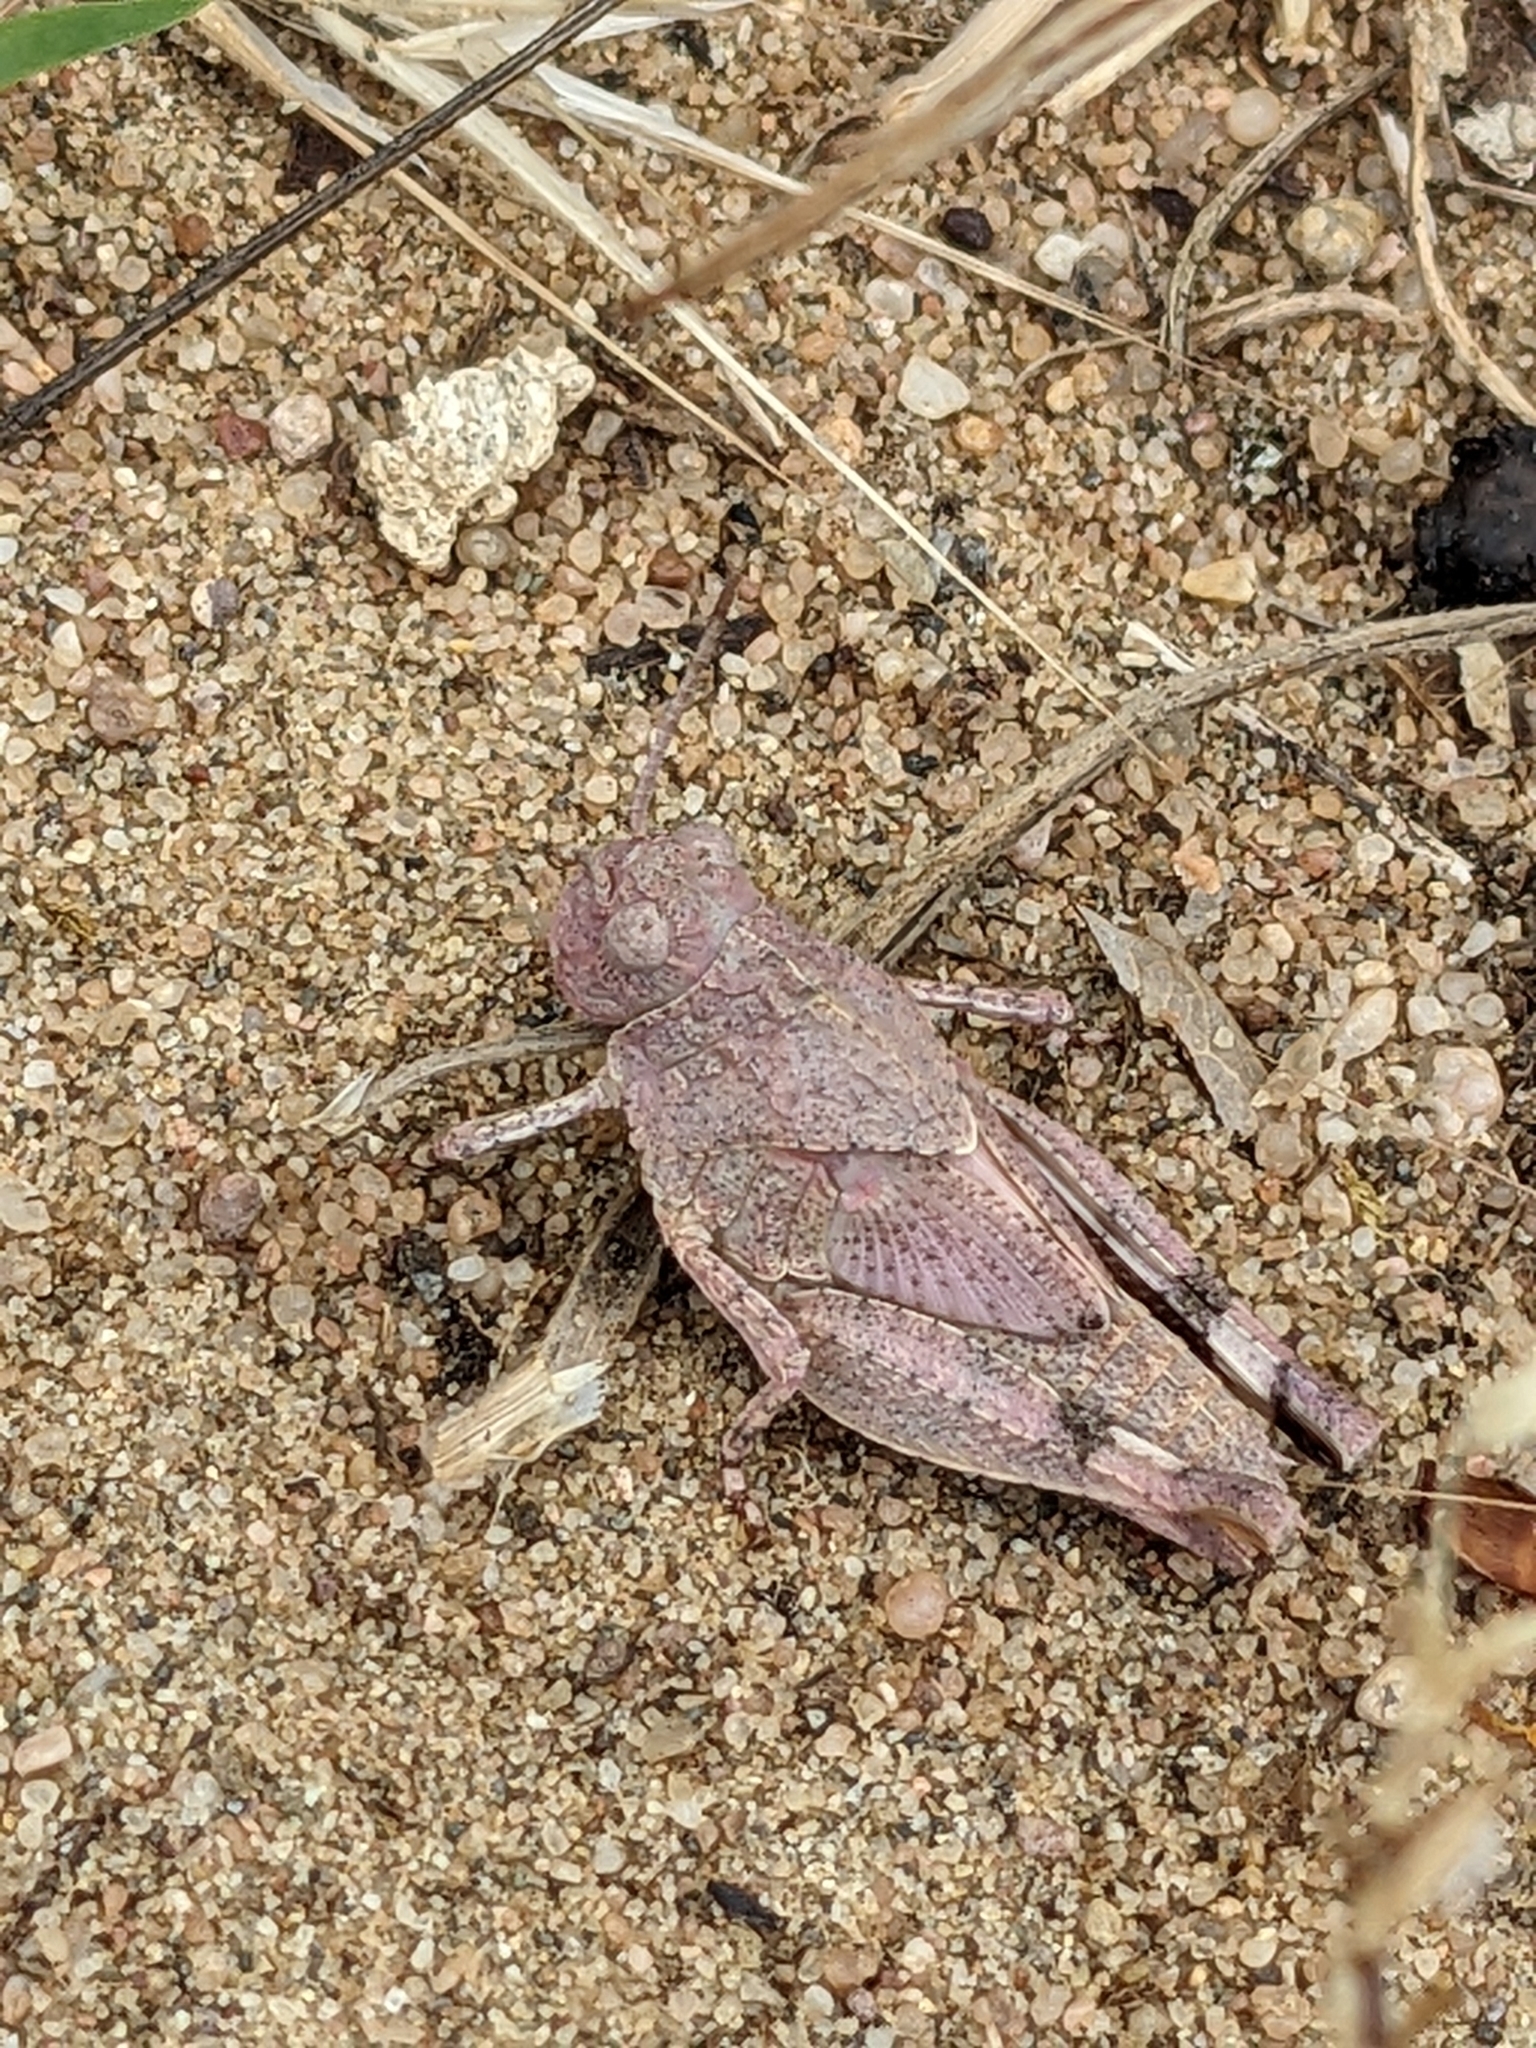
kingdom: Animalia
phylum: Arthropoda
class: Insecta
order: Orthoptera
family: Acrididae
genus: Oedipoda
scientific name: Oedipoda caerulescens
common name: Blue-winged grasshopper
